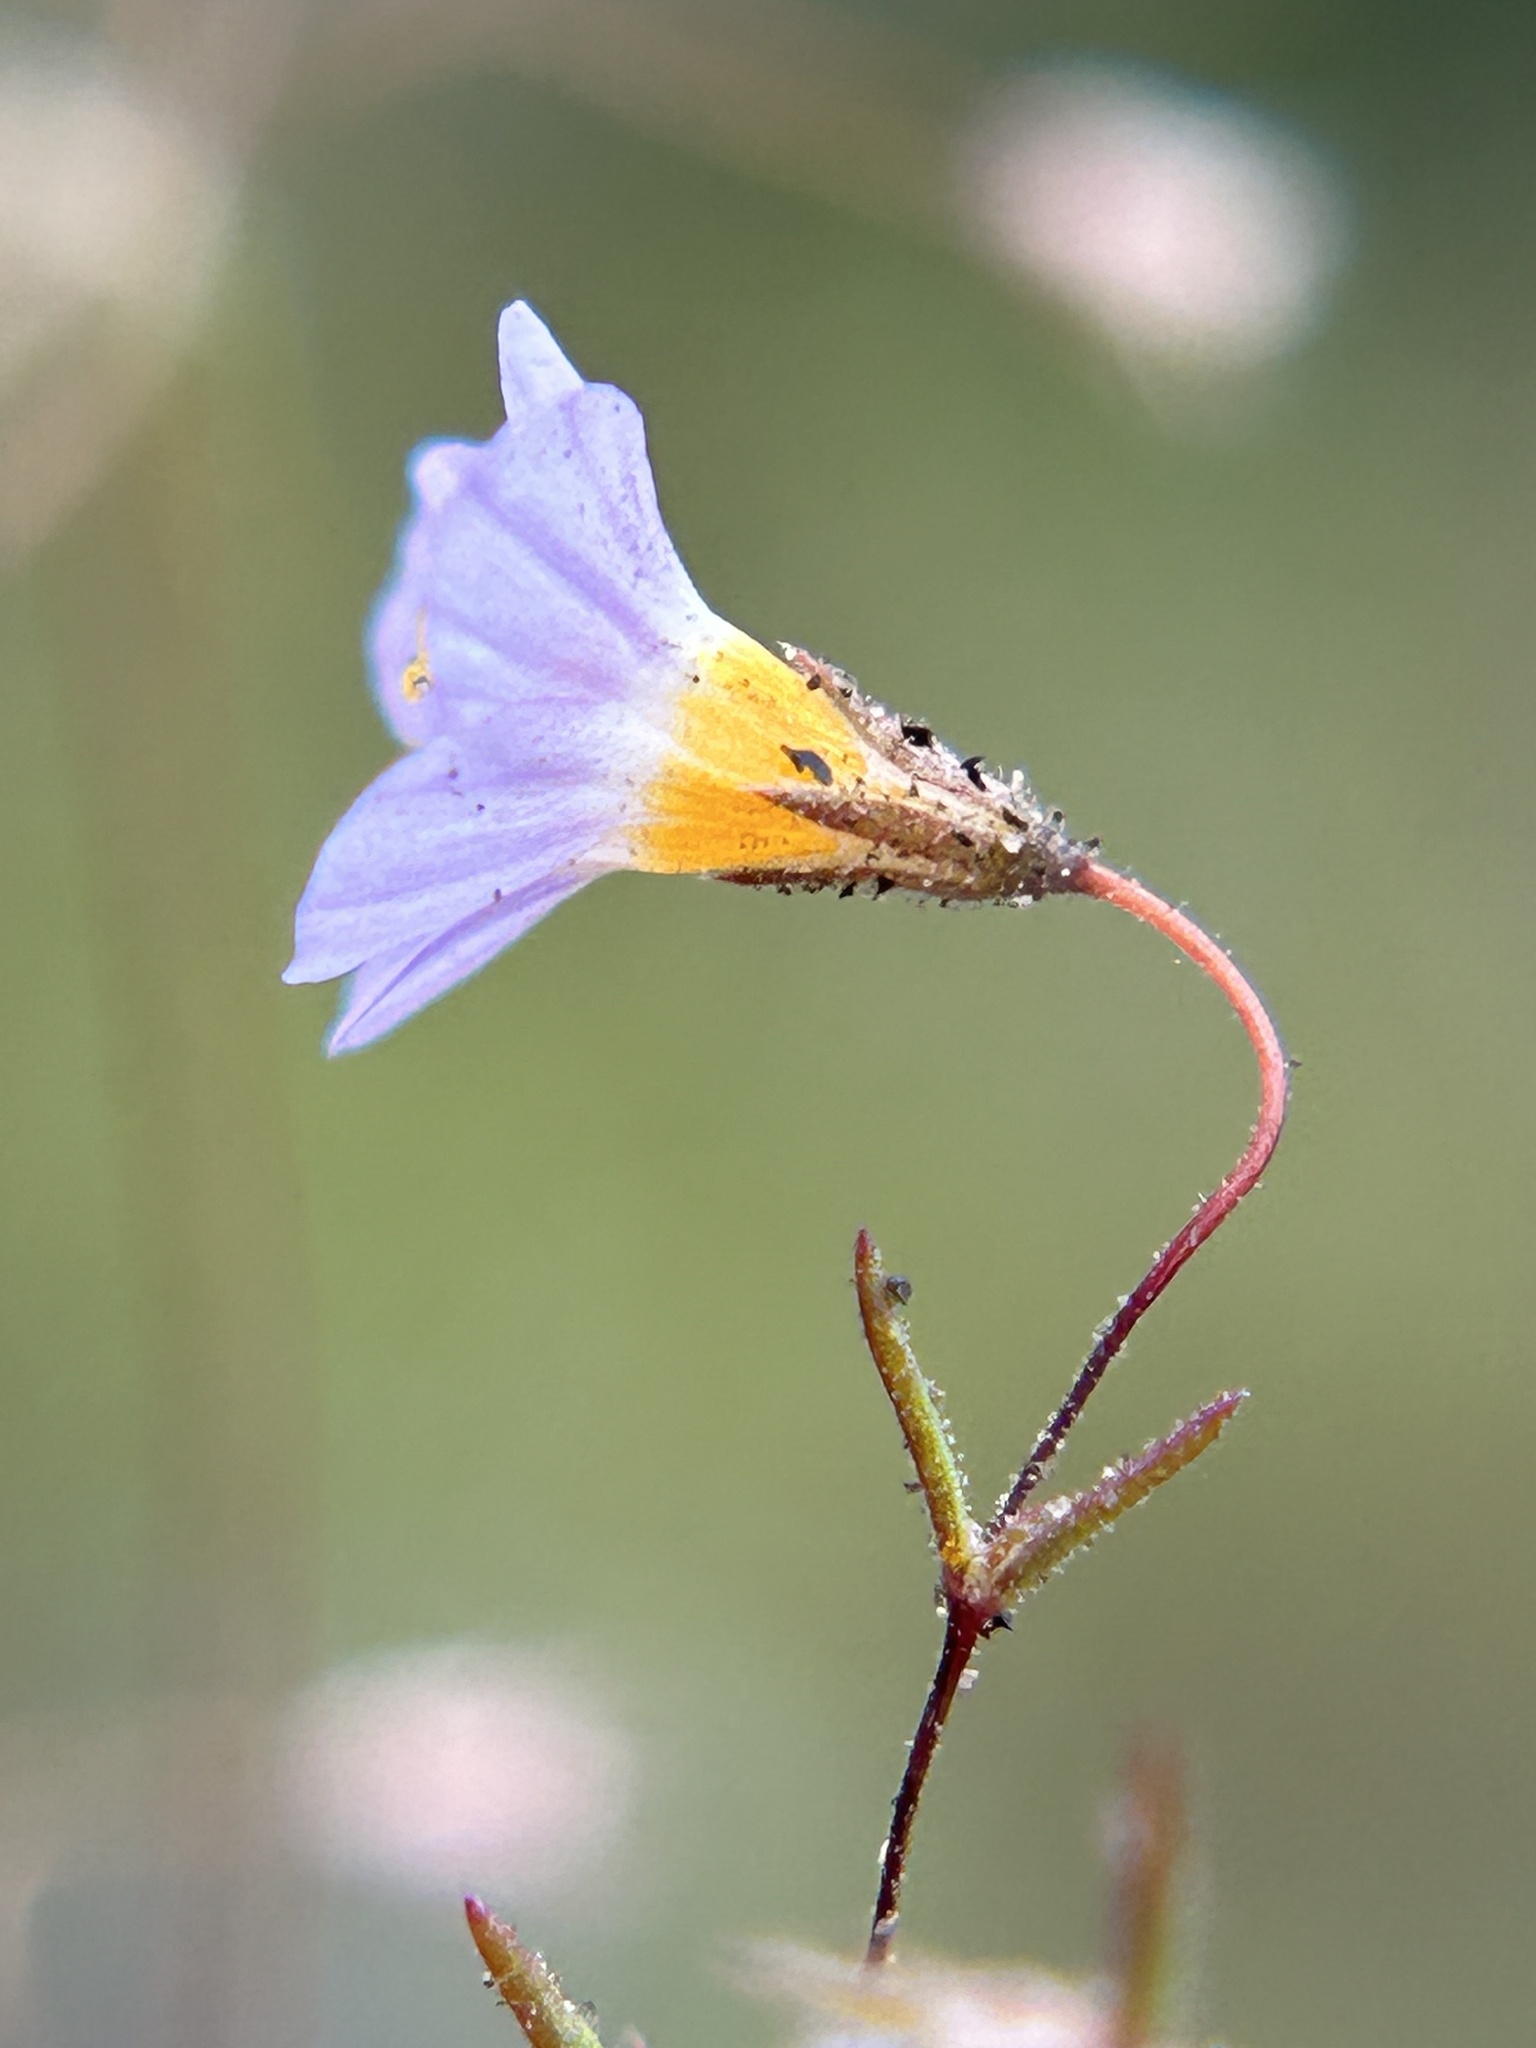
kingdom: Plantae
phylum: Tracheophyta
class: Magnoliopsida
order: Ericales
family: Polemoniaceae
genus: Leptosiphon
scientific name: Leptosiphon filipes
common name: Thread linanthus
